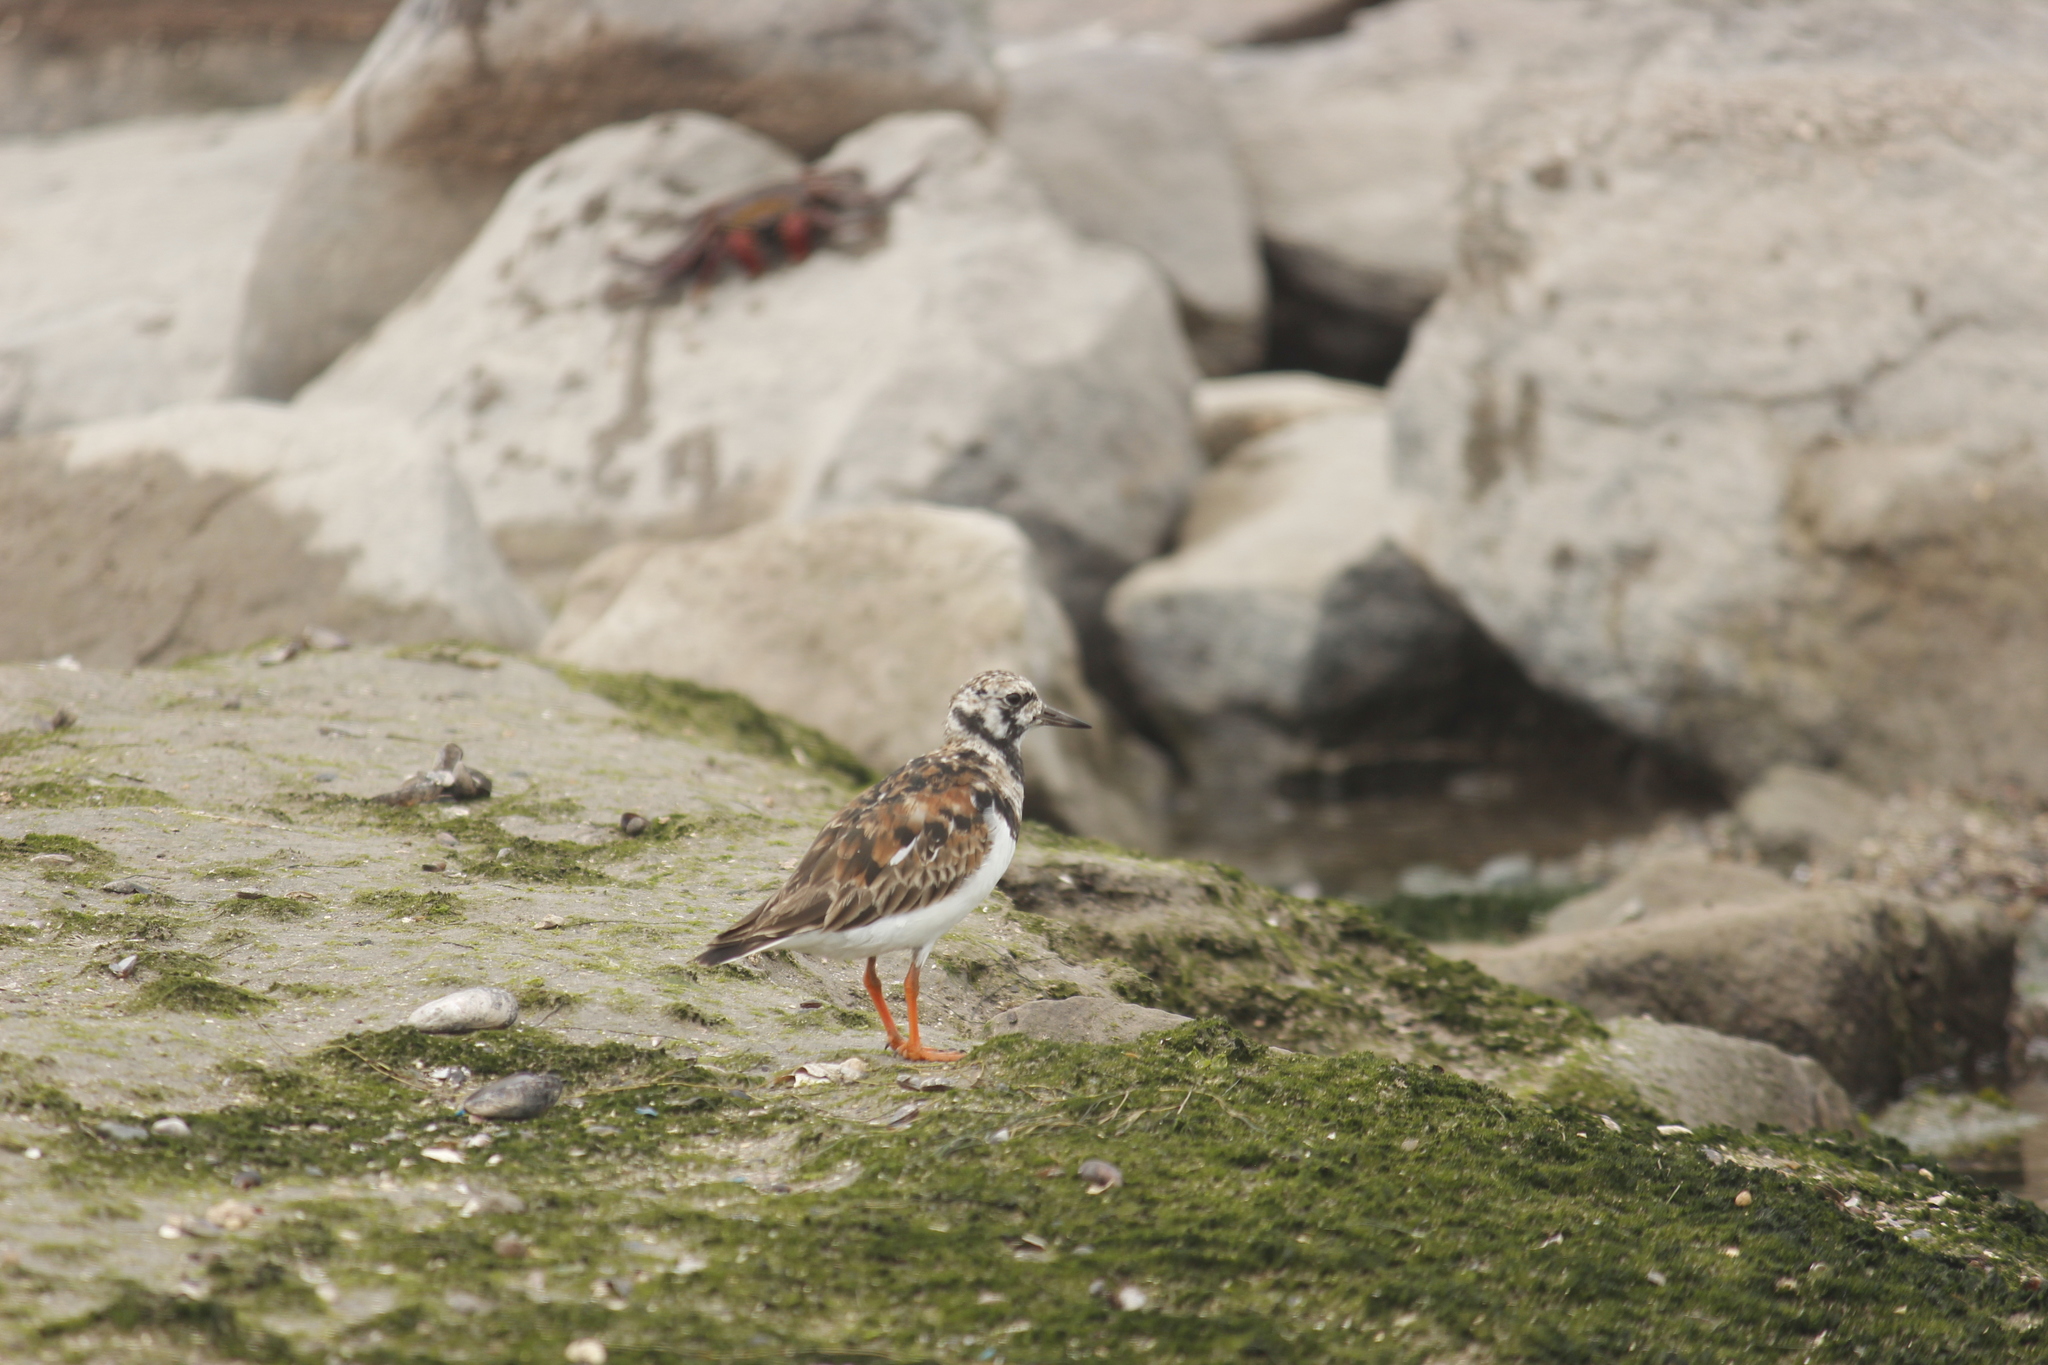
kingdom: Animalia
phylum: Chordata
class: Aves
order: Charadriiformes
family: Scolopacidae
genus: Arenaria
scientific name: Arenaria interpres
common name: Ruddy turnstone
